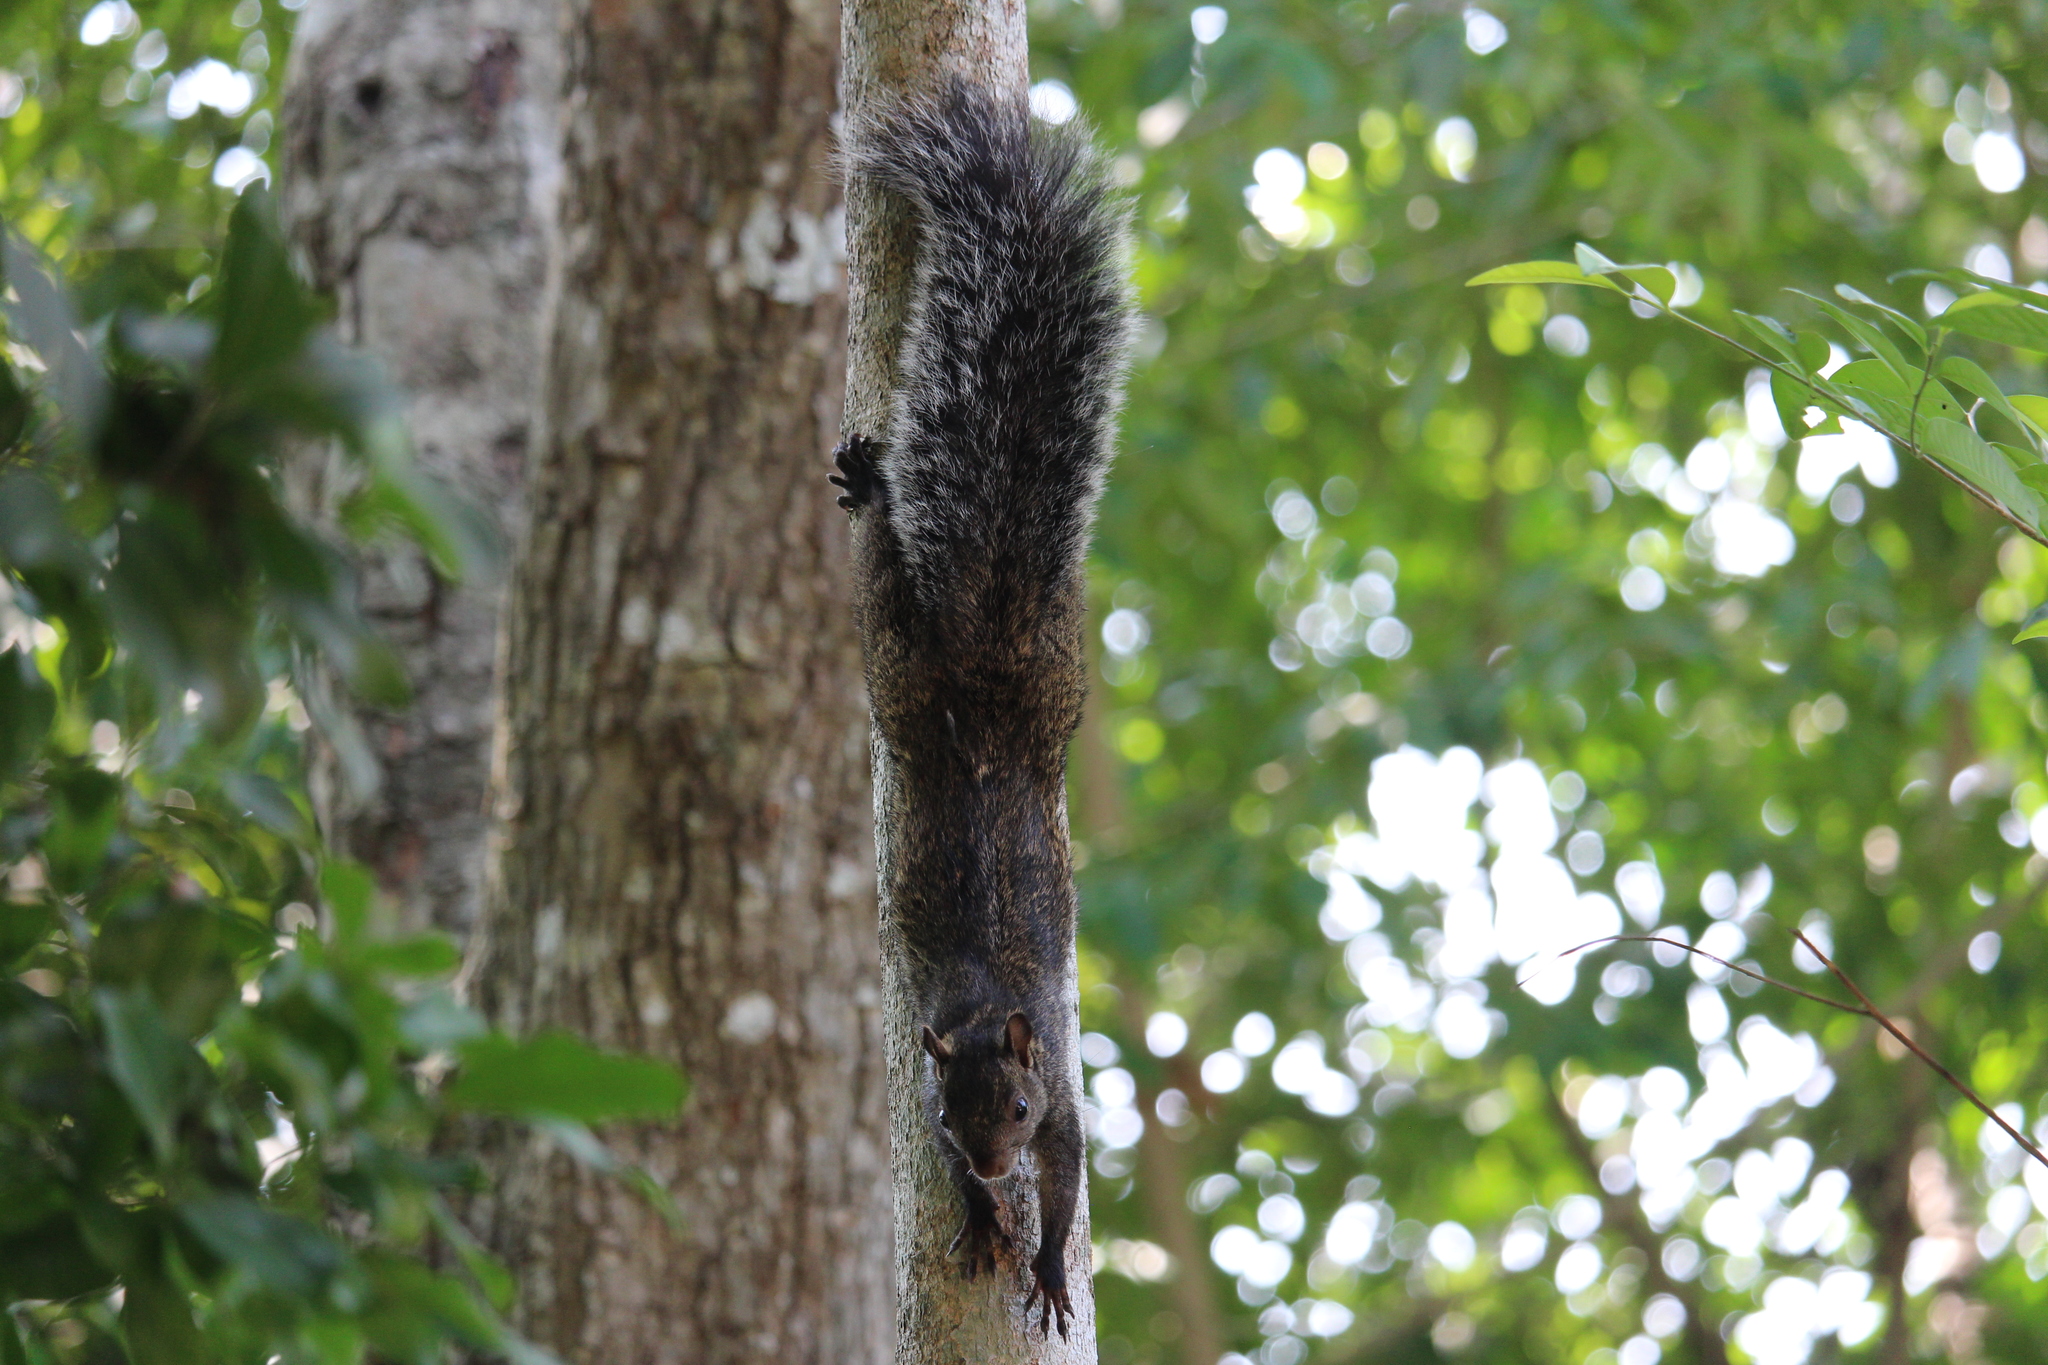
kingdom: Animalia
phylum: Chordata
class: Mammalia
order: Rodentia
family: Sciuridae
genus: Sciurus
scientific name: Sciurus yucatanensis
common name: Yucatan squirrel
